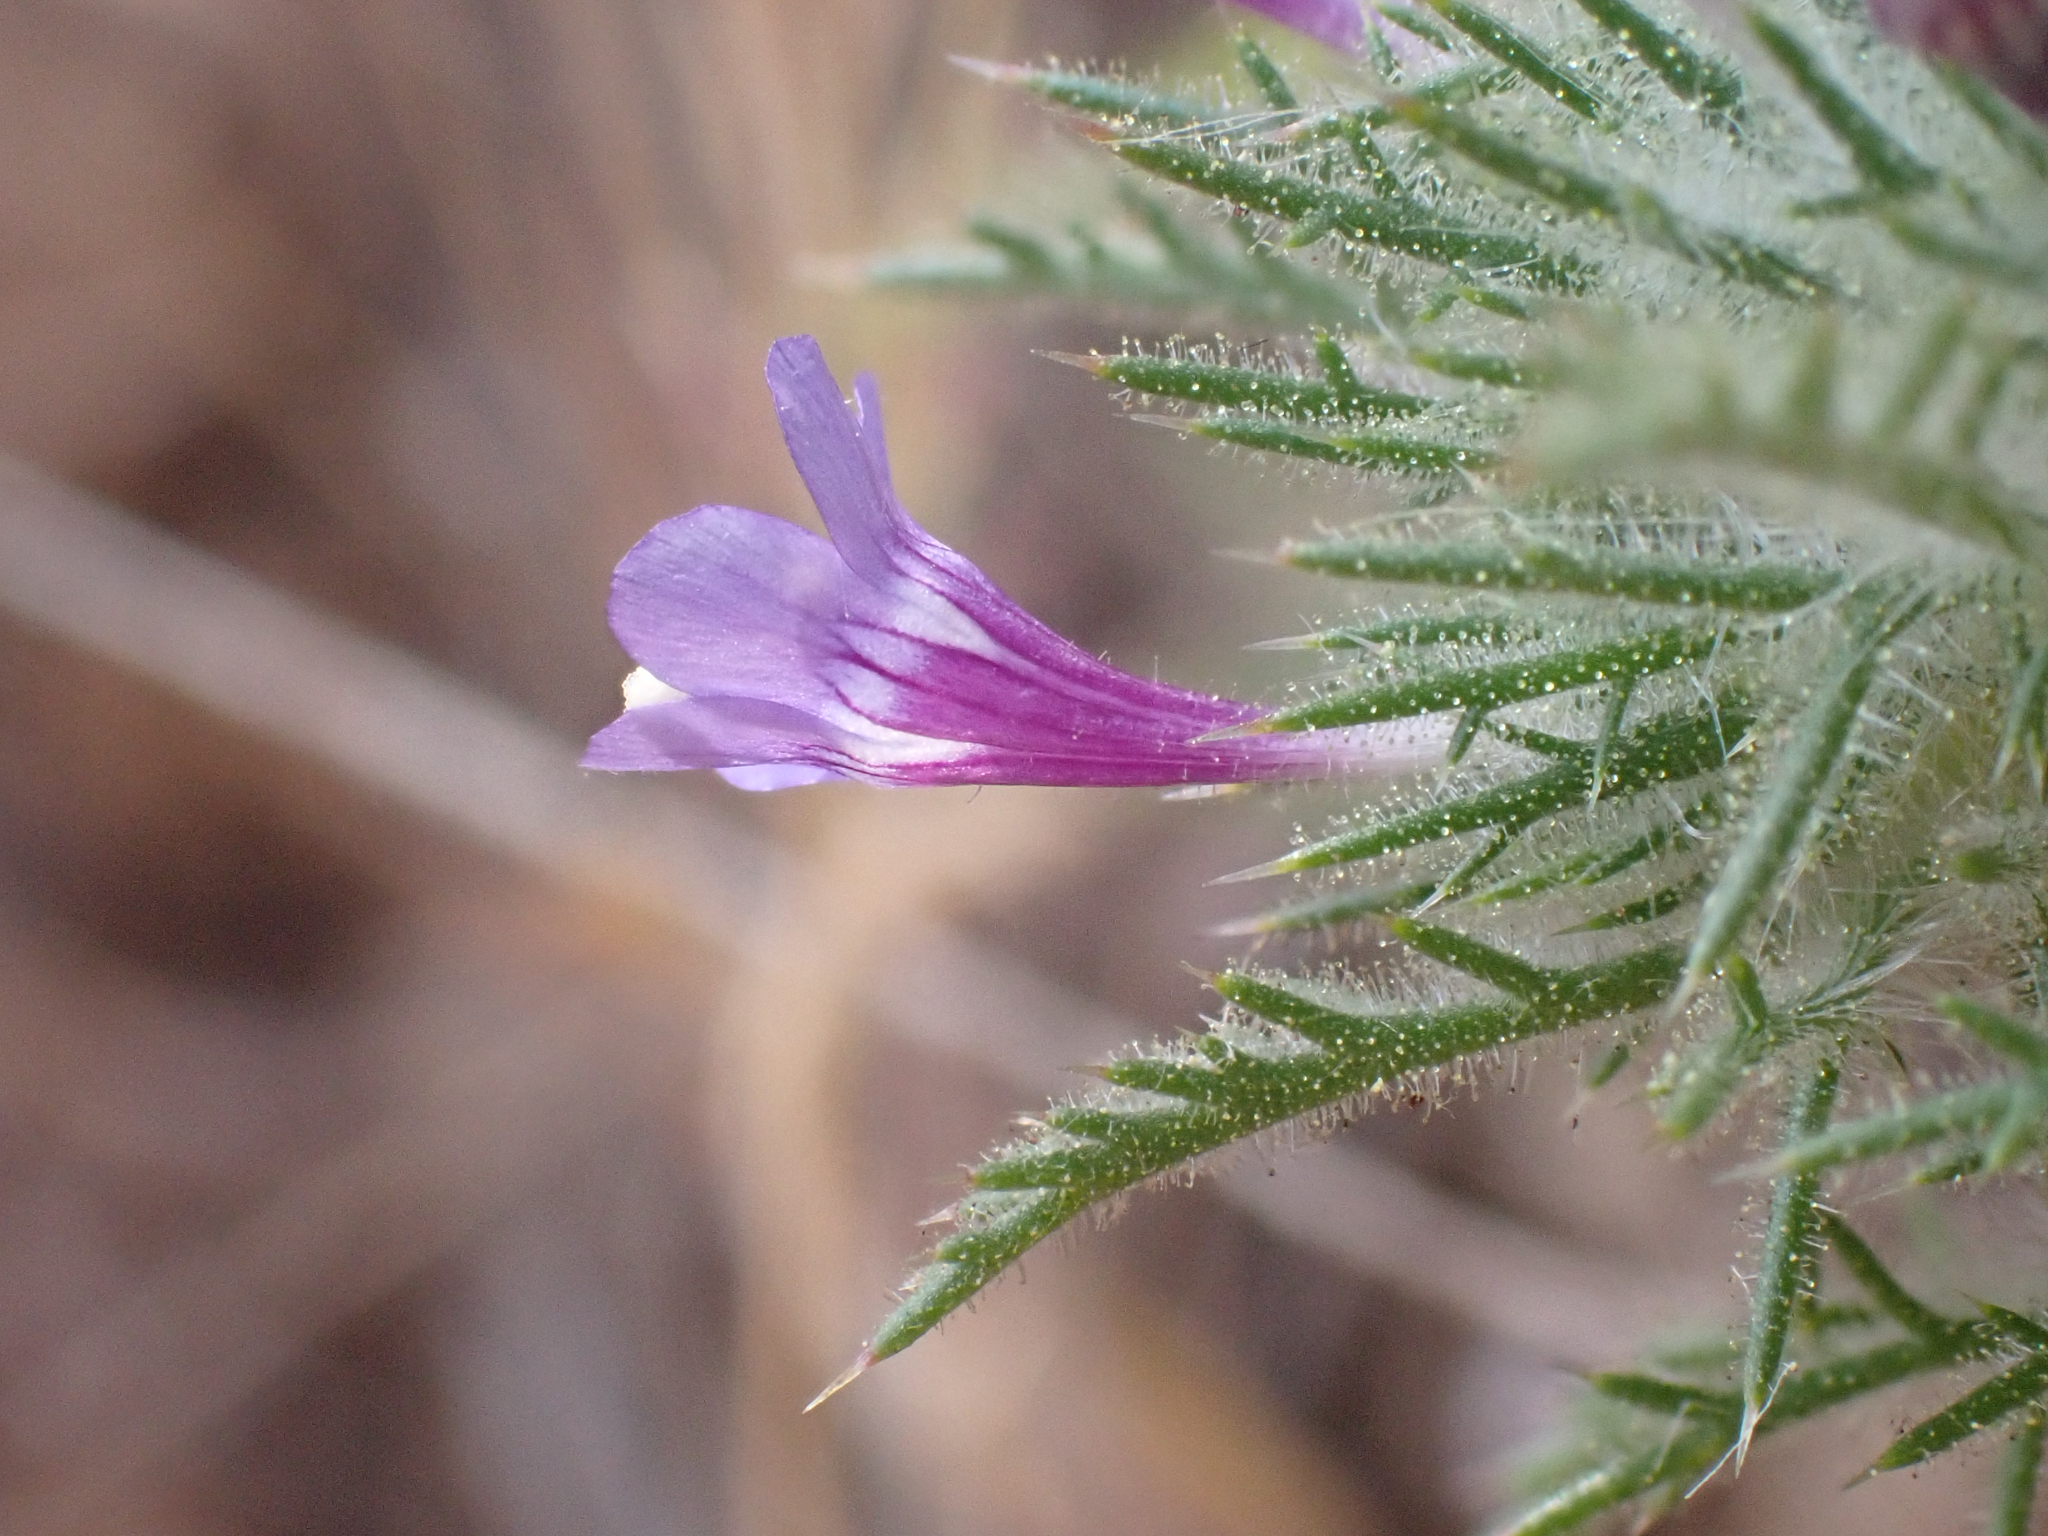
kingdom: Plantae
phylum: Tracheophyta
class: Magnoliopsida
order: Ericales
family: Polemoniaceae
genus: Navarretia
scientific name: Navarretia pubescens
